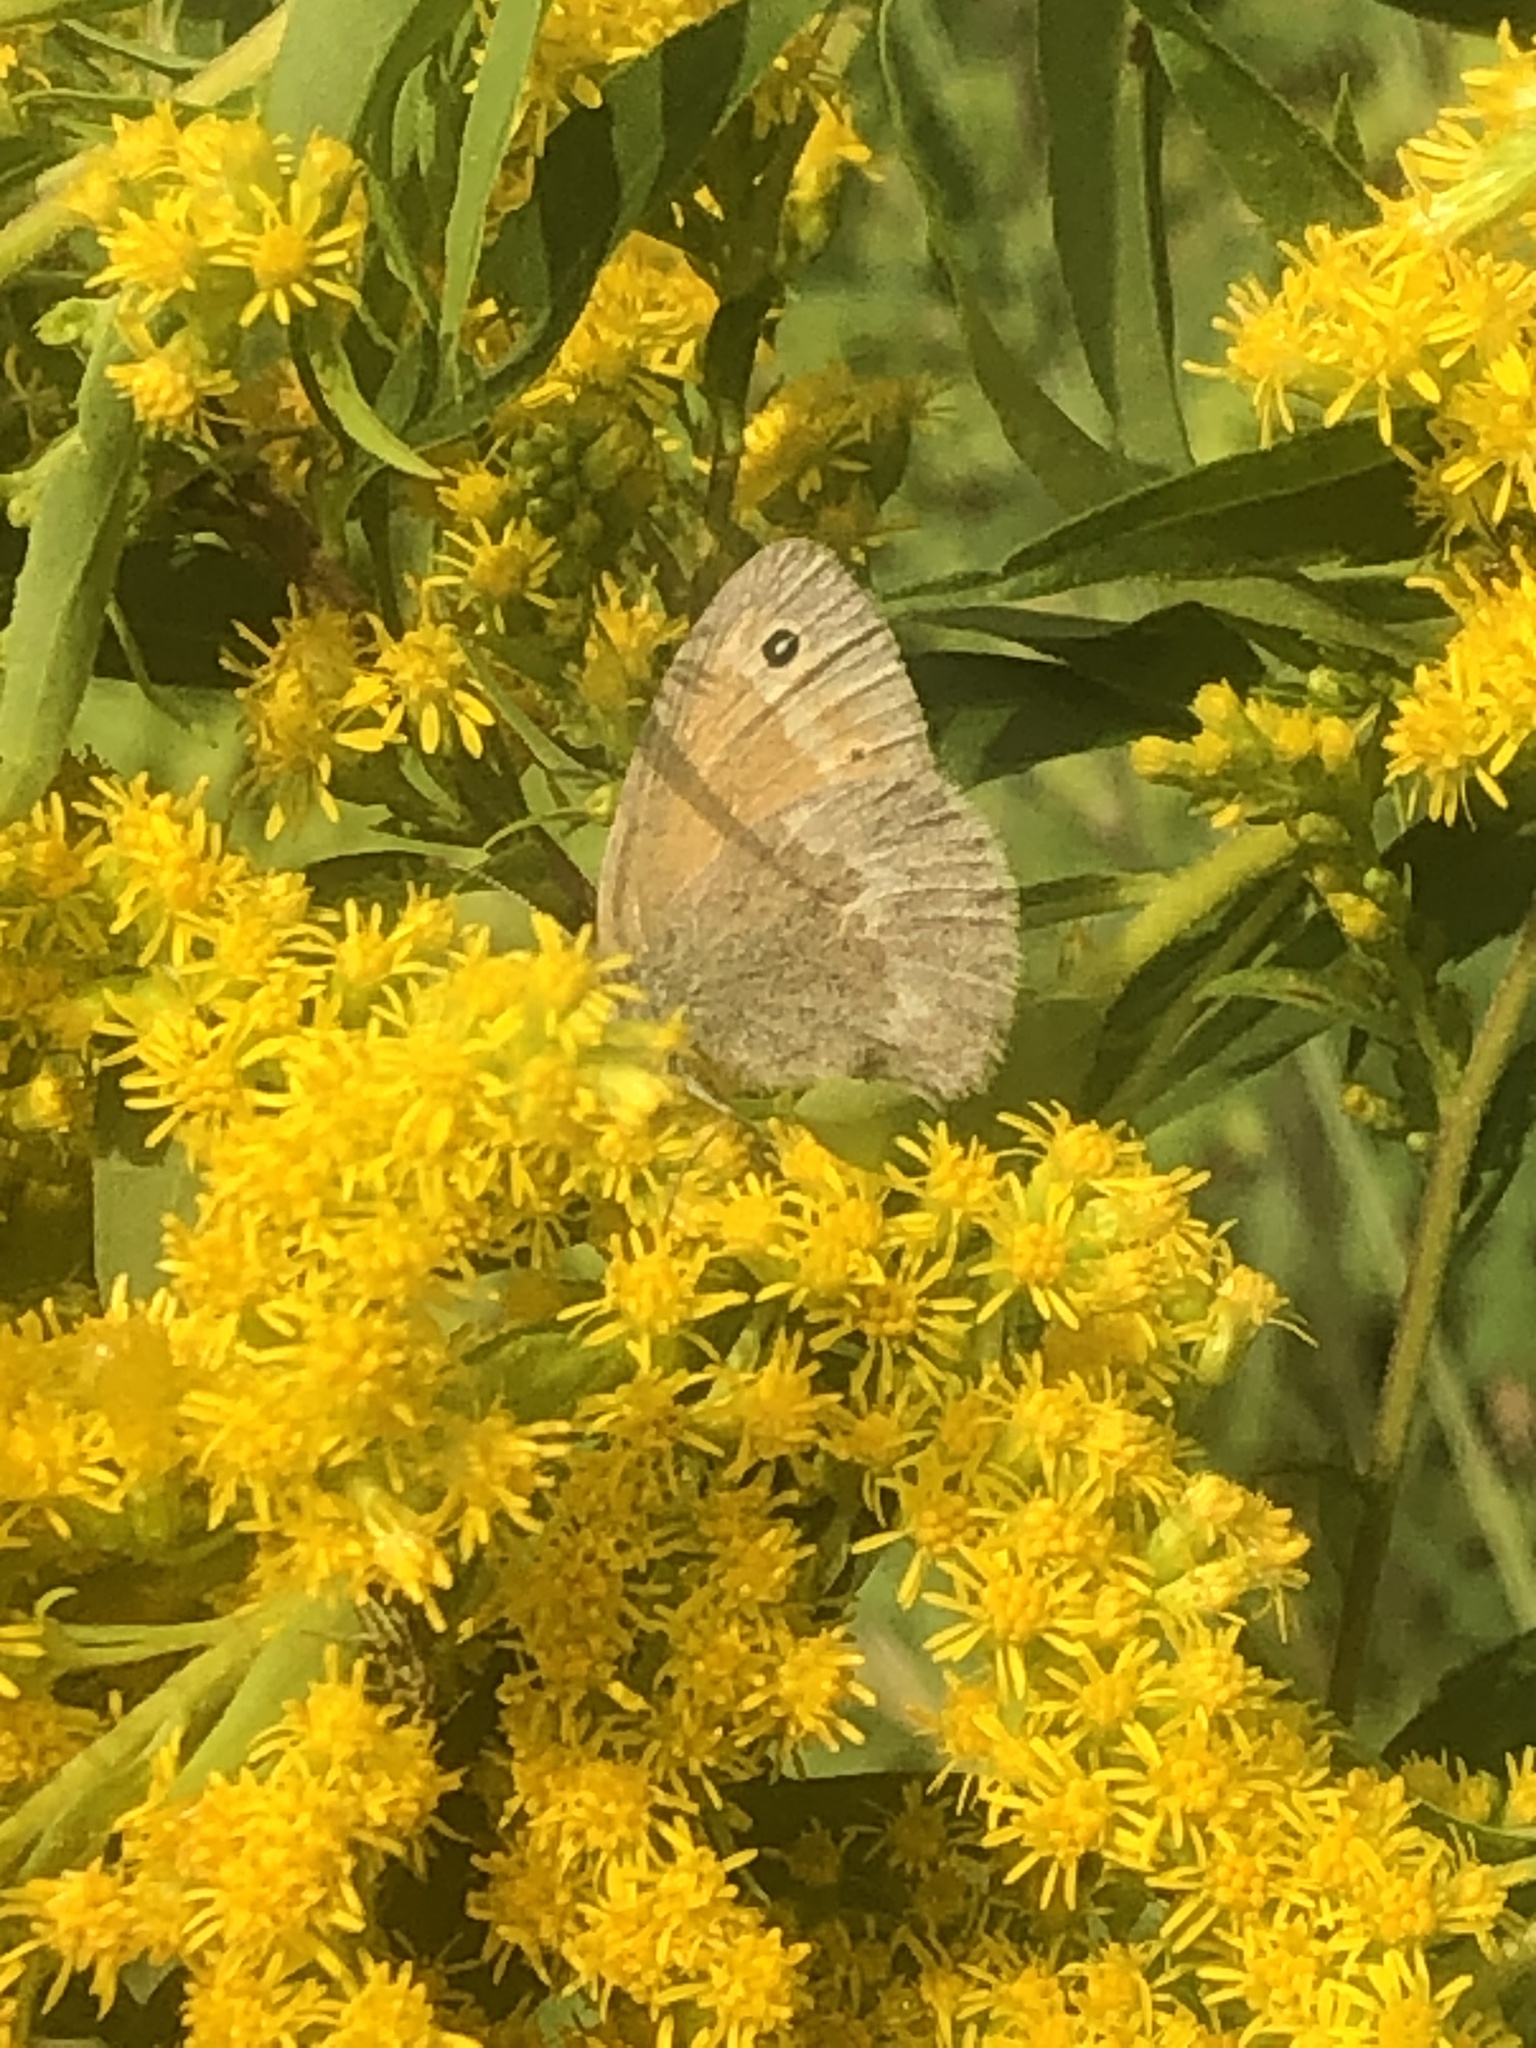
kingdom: Animalia
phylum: Arthropoda
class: Insecta
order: Lepidoptera
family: Nymphalidae
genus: Coenonympha
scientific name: Coenonympha california
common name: Common ringlet
